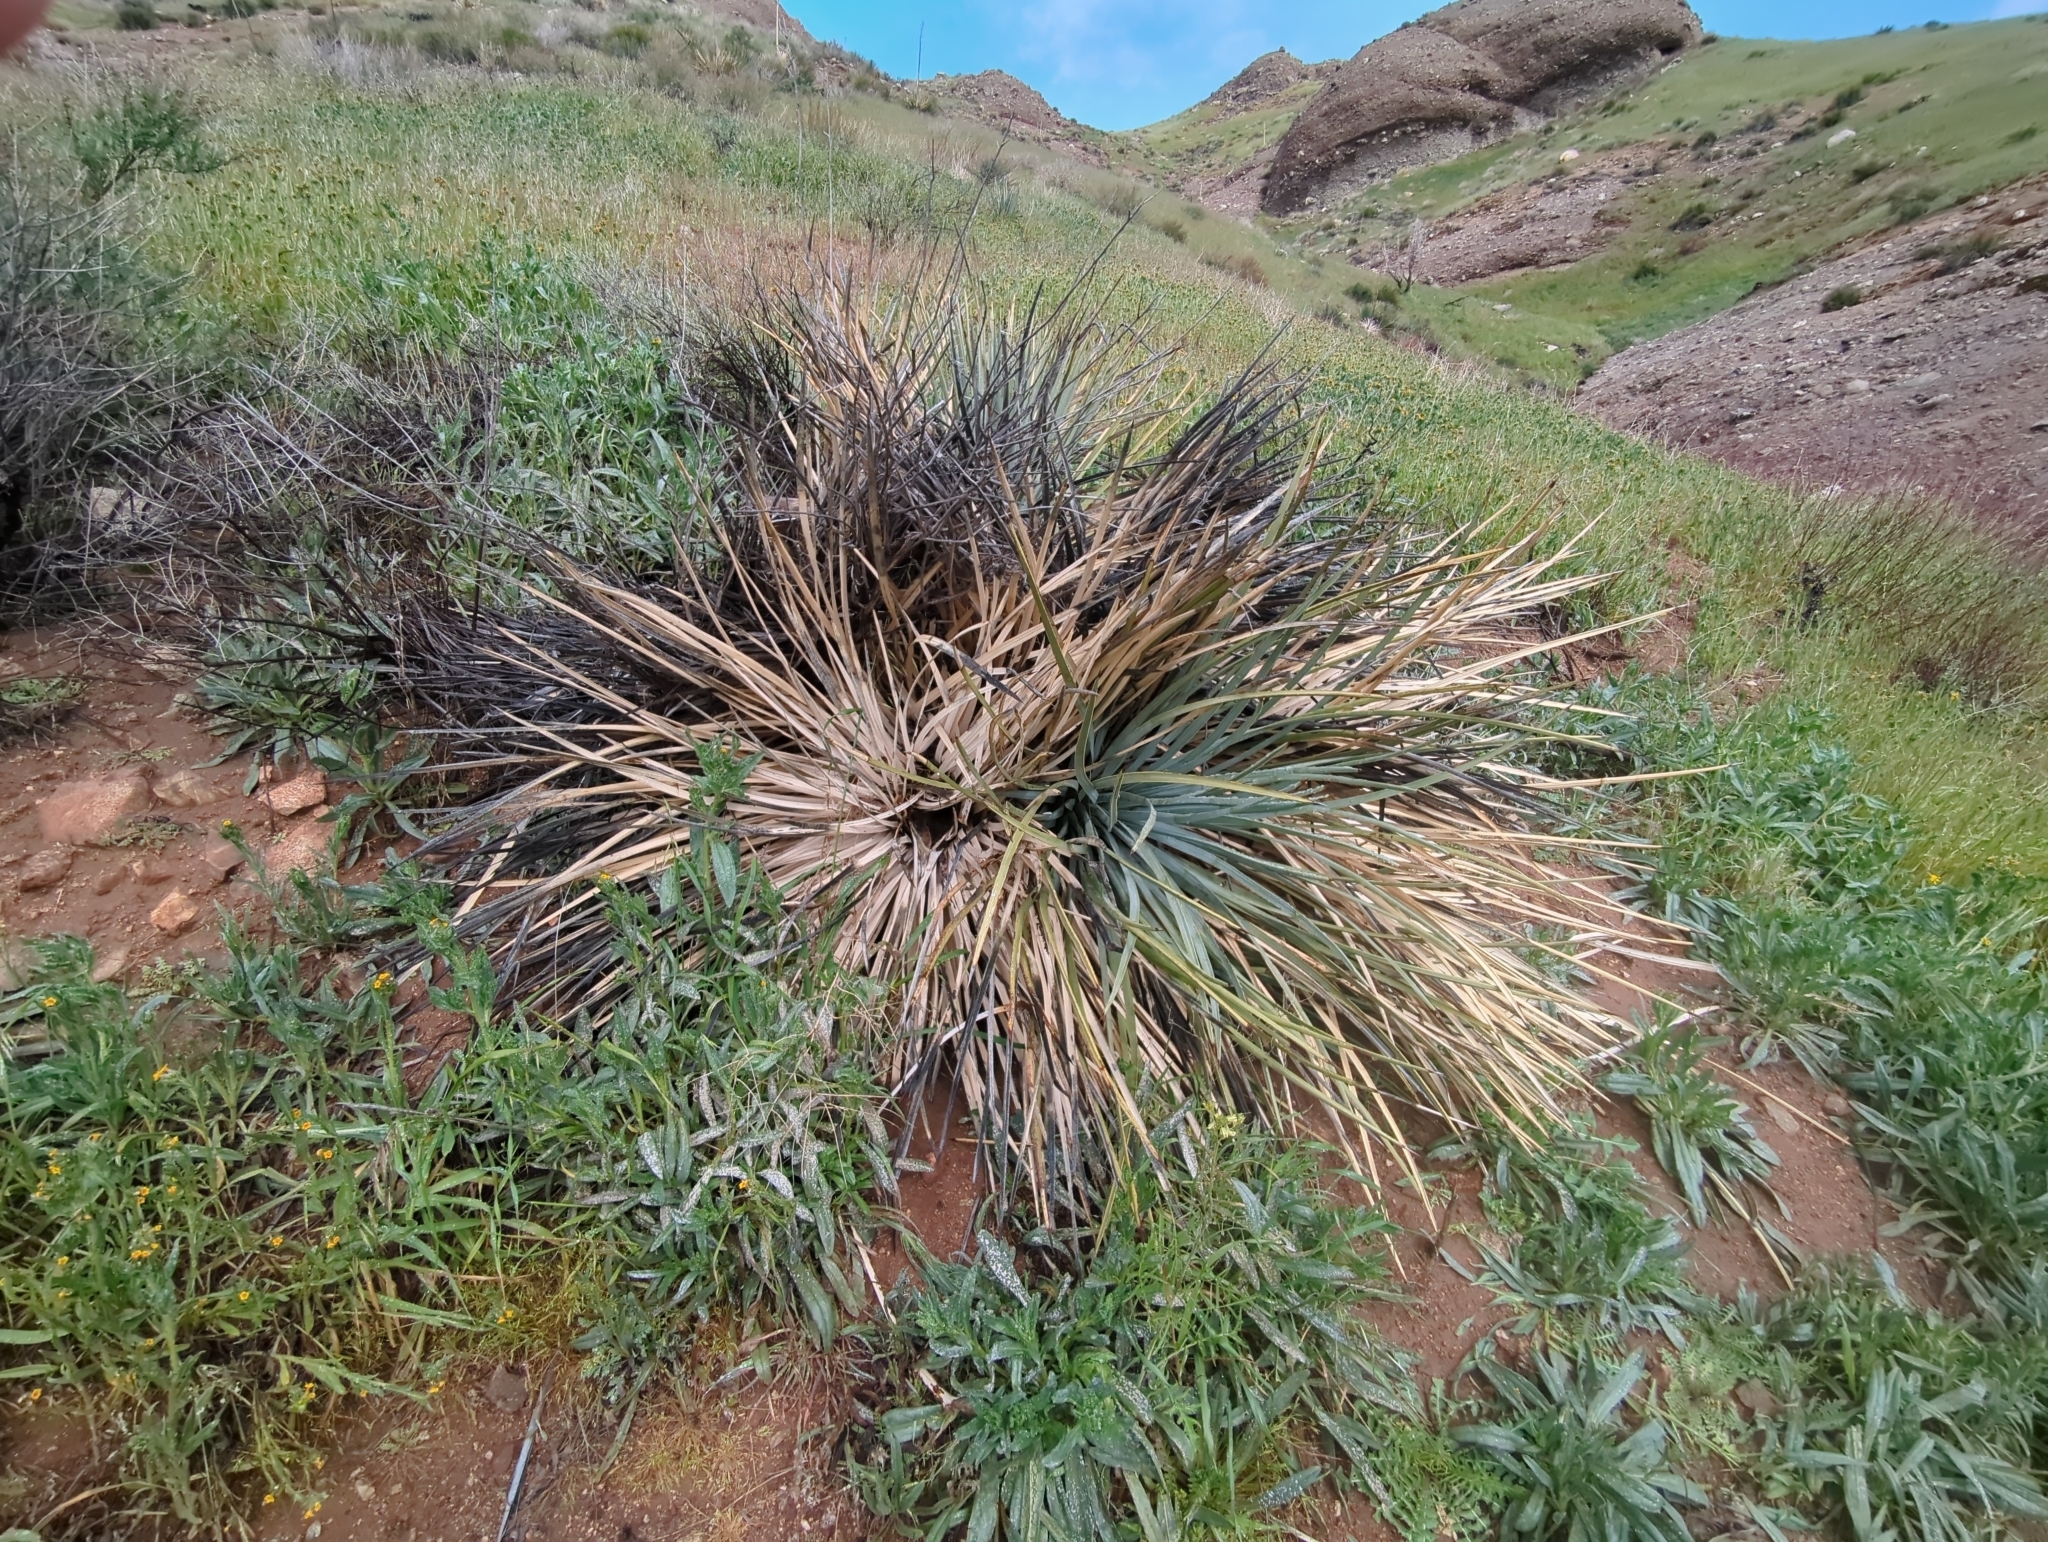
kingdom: Plantae
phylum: Tracheophyta
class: Liliopsida
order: Asparagales
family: Asparagaceae
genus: Hesperoyucca
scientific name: Hesperoyucca whipplei
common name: Our lord's-candle
